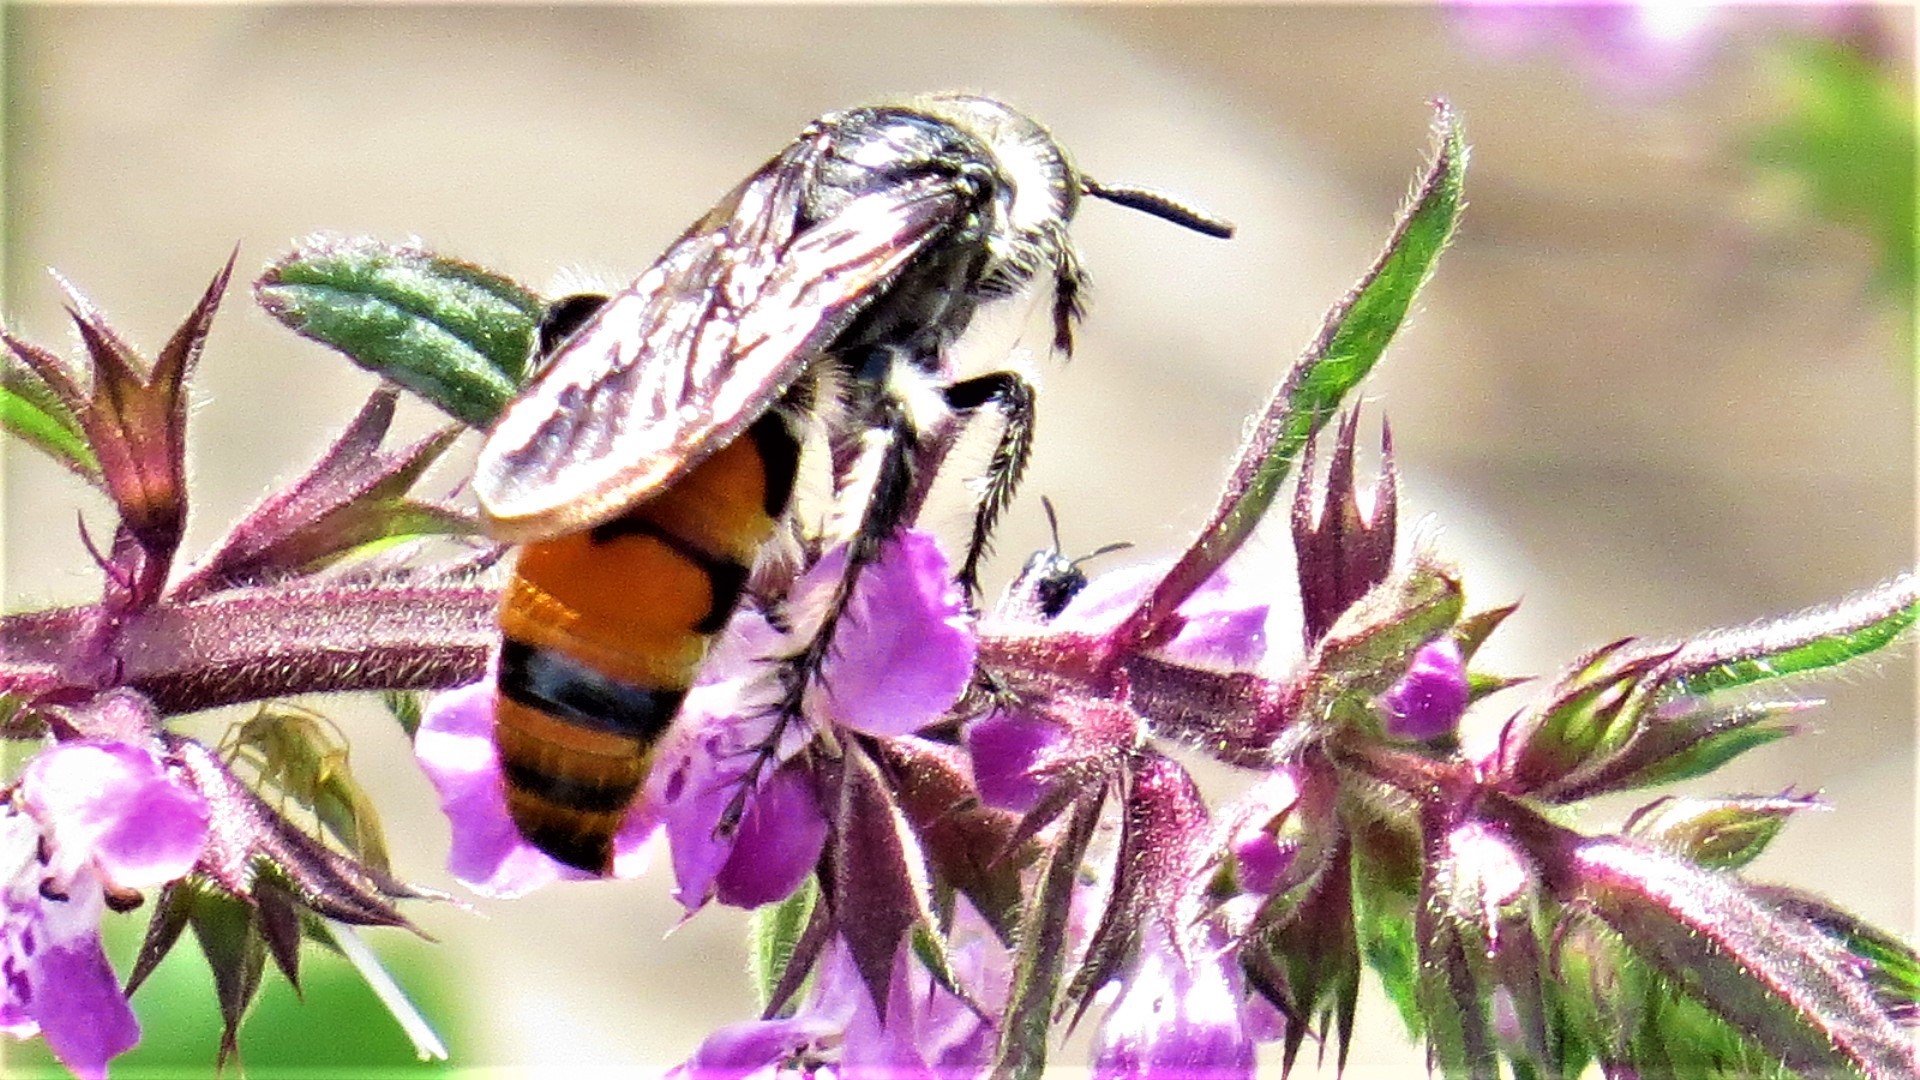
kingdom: Animalia
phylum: Arthropoda
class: Insecta
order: Hymenoptera
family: Scoliidae
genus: Dielis
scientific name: Dielis tolteca
